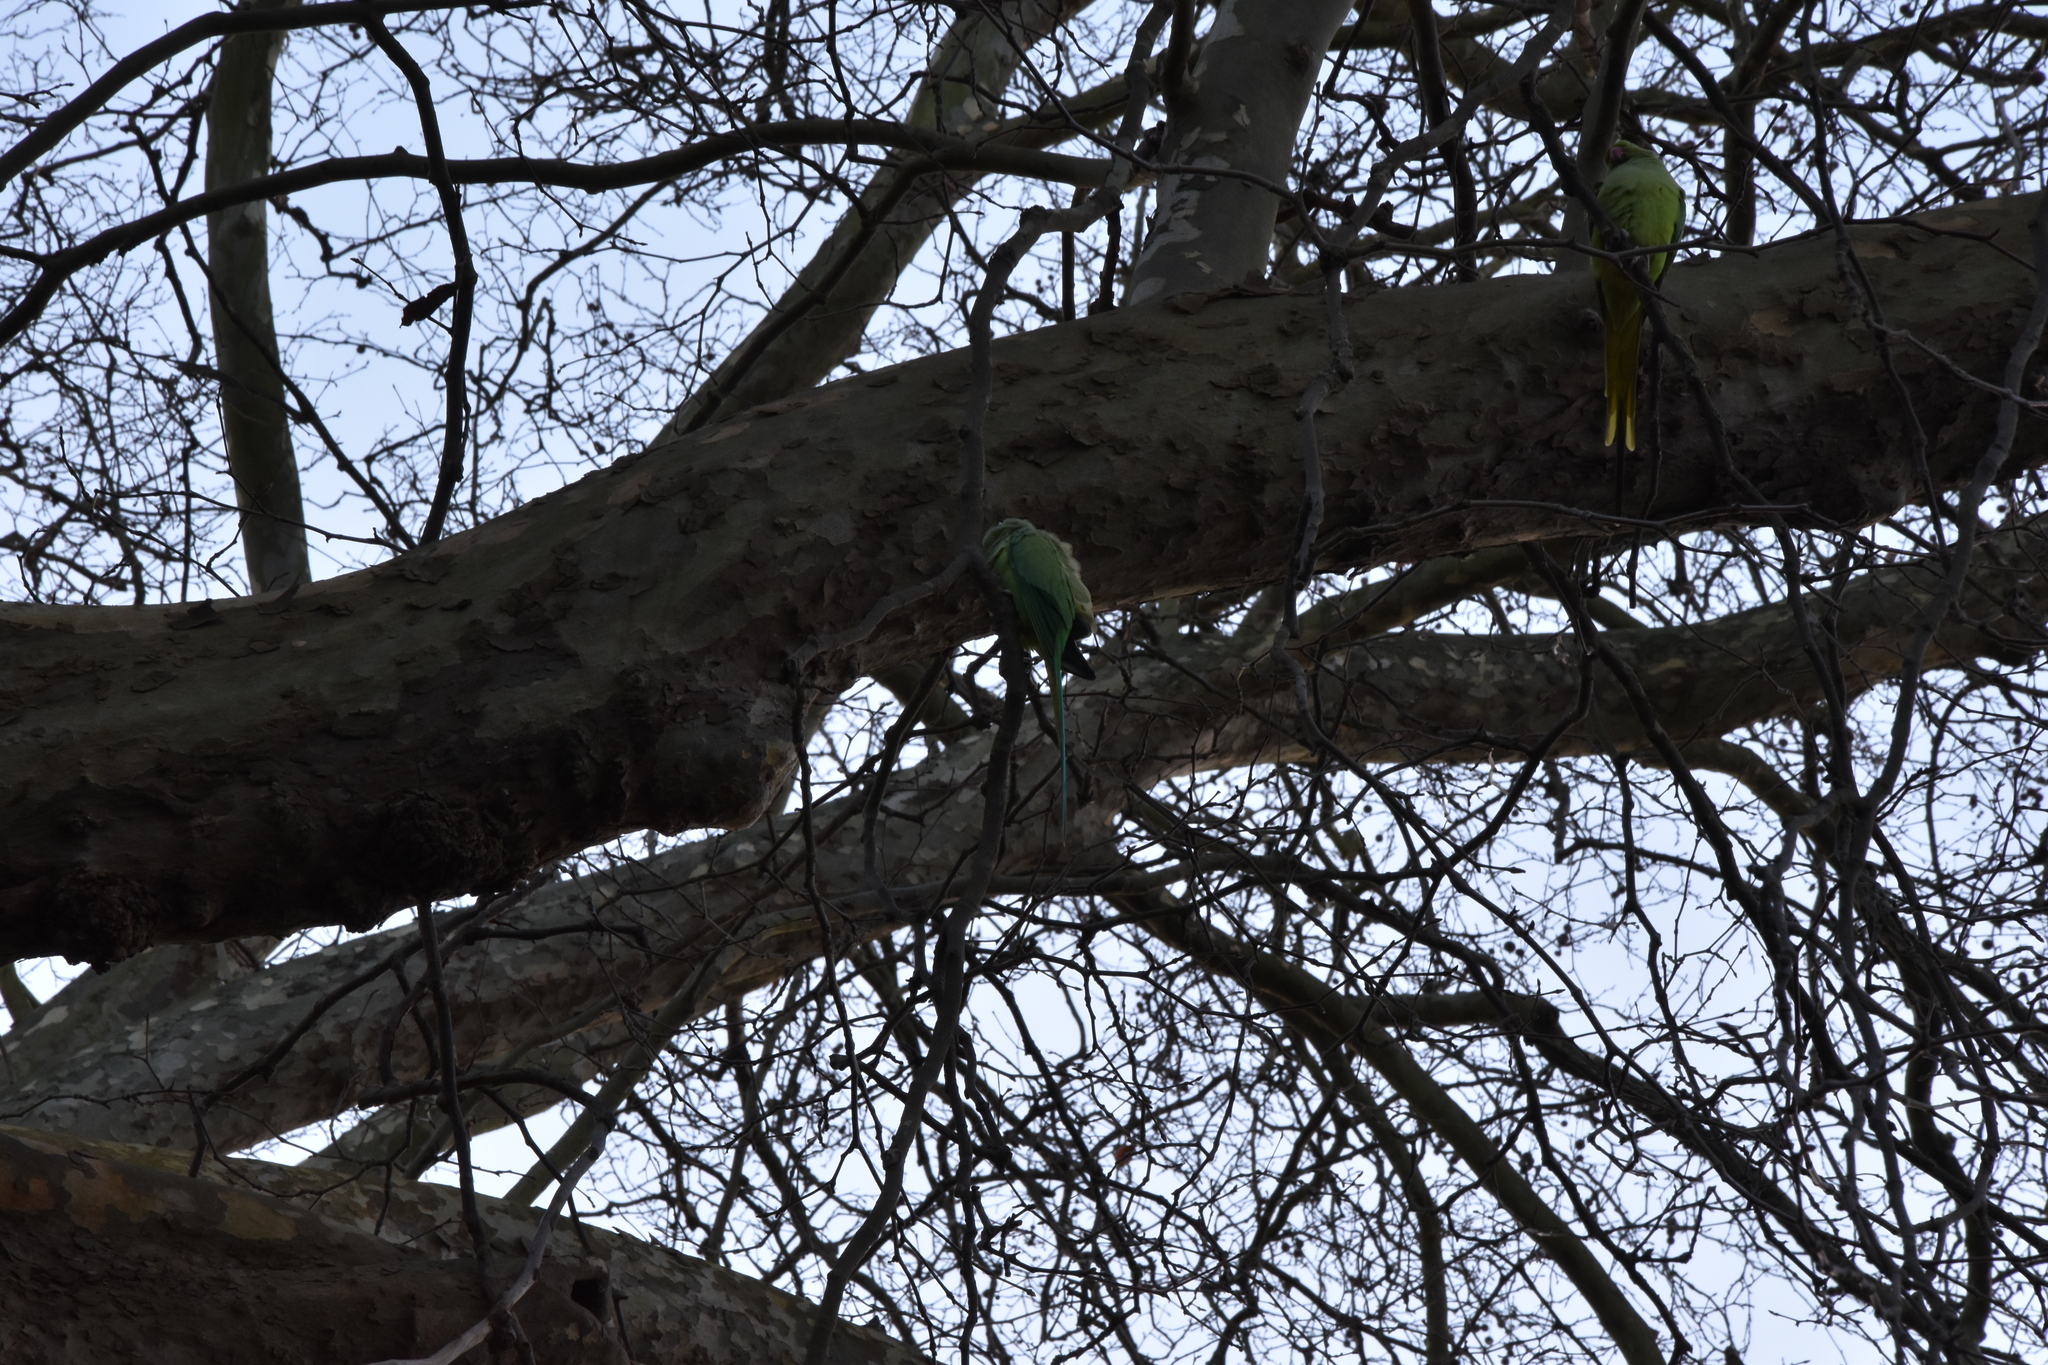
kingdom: Animalia
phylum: Chordata
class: Aves
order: Psittaciformes
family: Psittacidae
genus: Psittacula
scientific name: Psittacula krameri
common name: Rose-ringed parakeet
